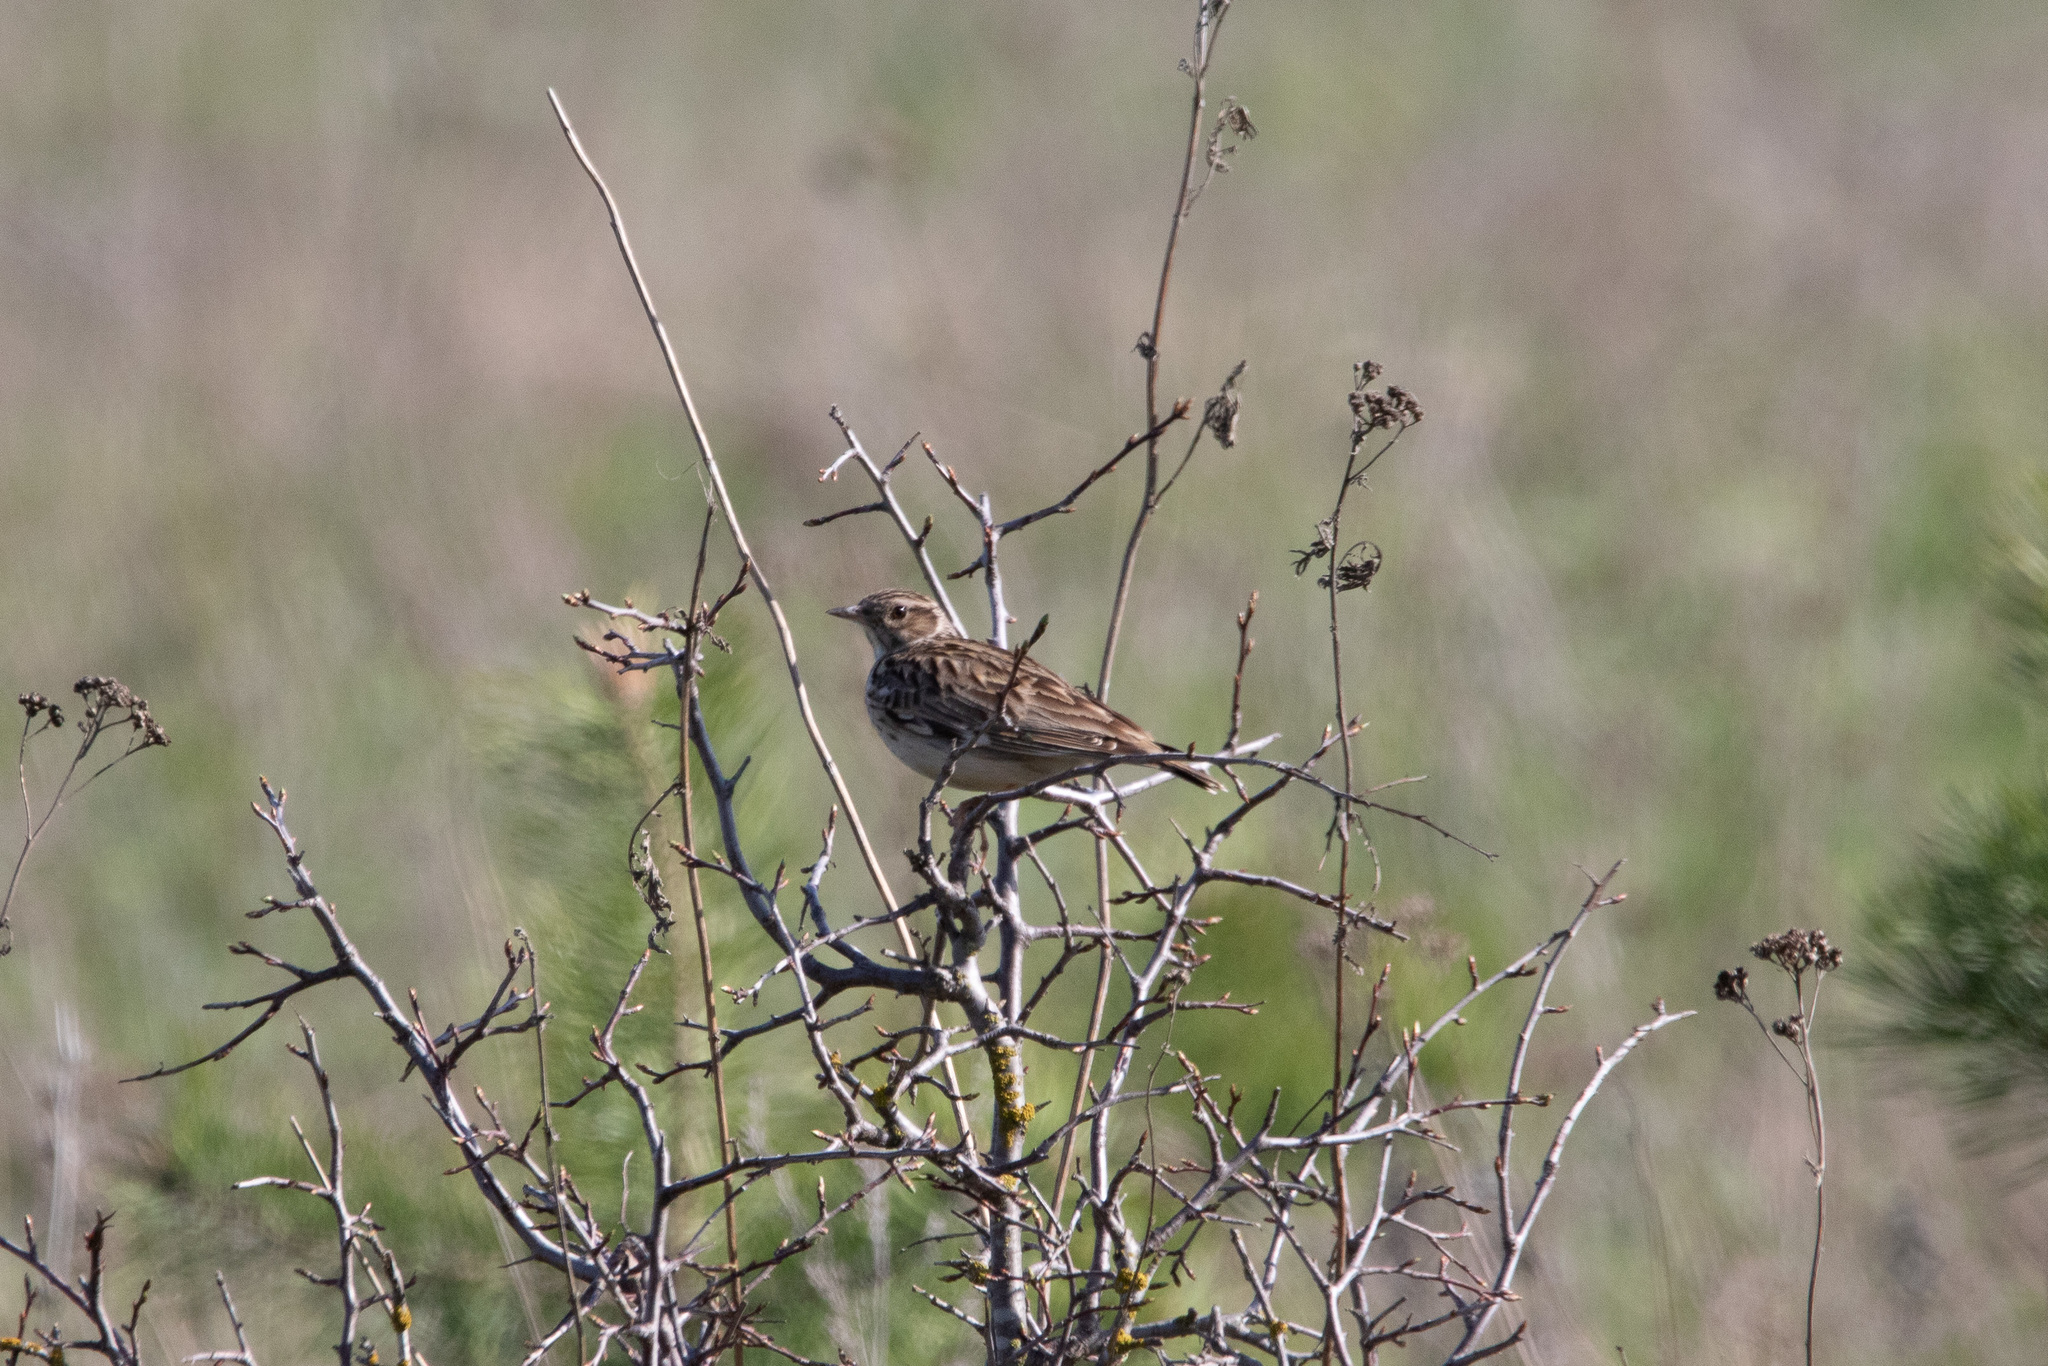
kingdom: Animalia
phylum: Chordata
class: Aves
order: Passeriformes
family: Alaudidae
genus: Lullula
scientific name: Lullula arborea
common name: Woodlark
